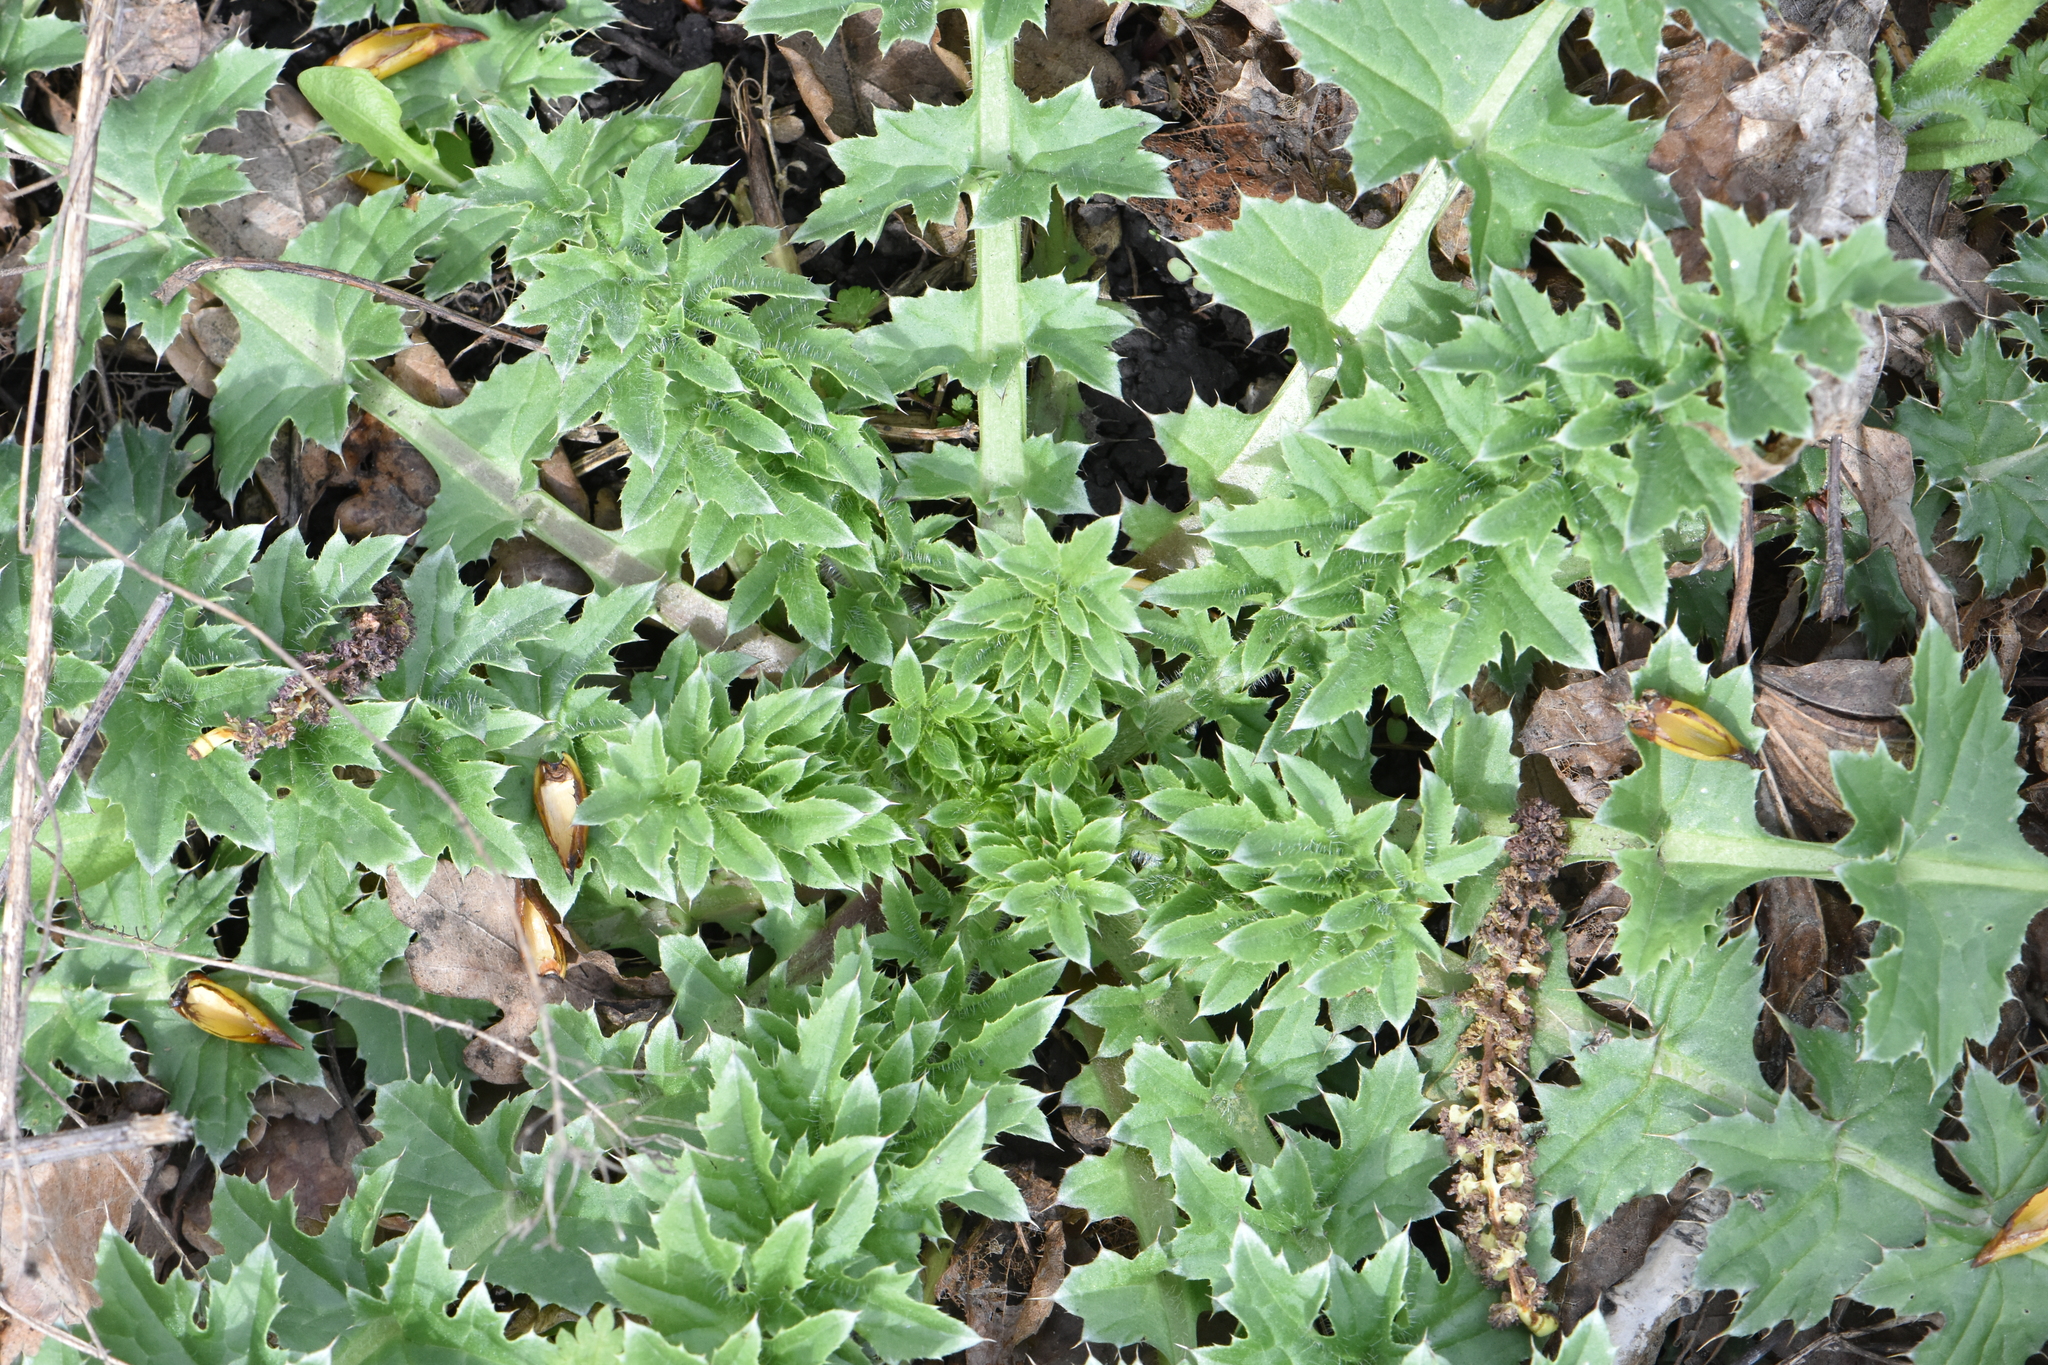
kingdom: Plantae
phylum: Tracheophyta
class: Magnoliopsida
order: Asterales
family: Asteraceae
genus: Carduus
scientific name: Carduus acanthoides
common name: Plumeless thistle
